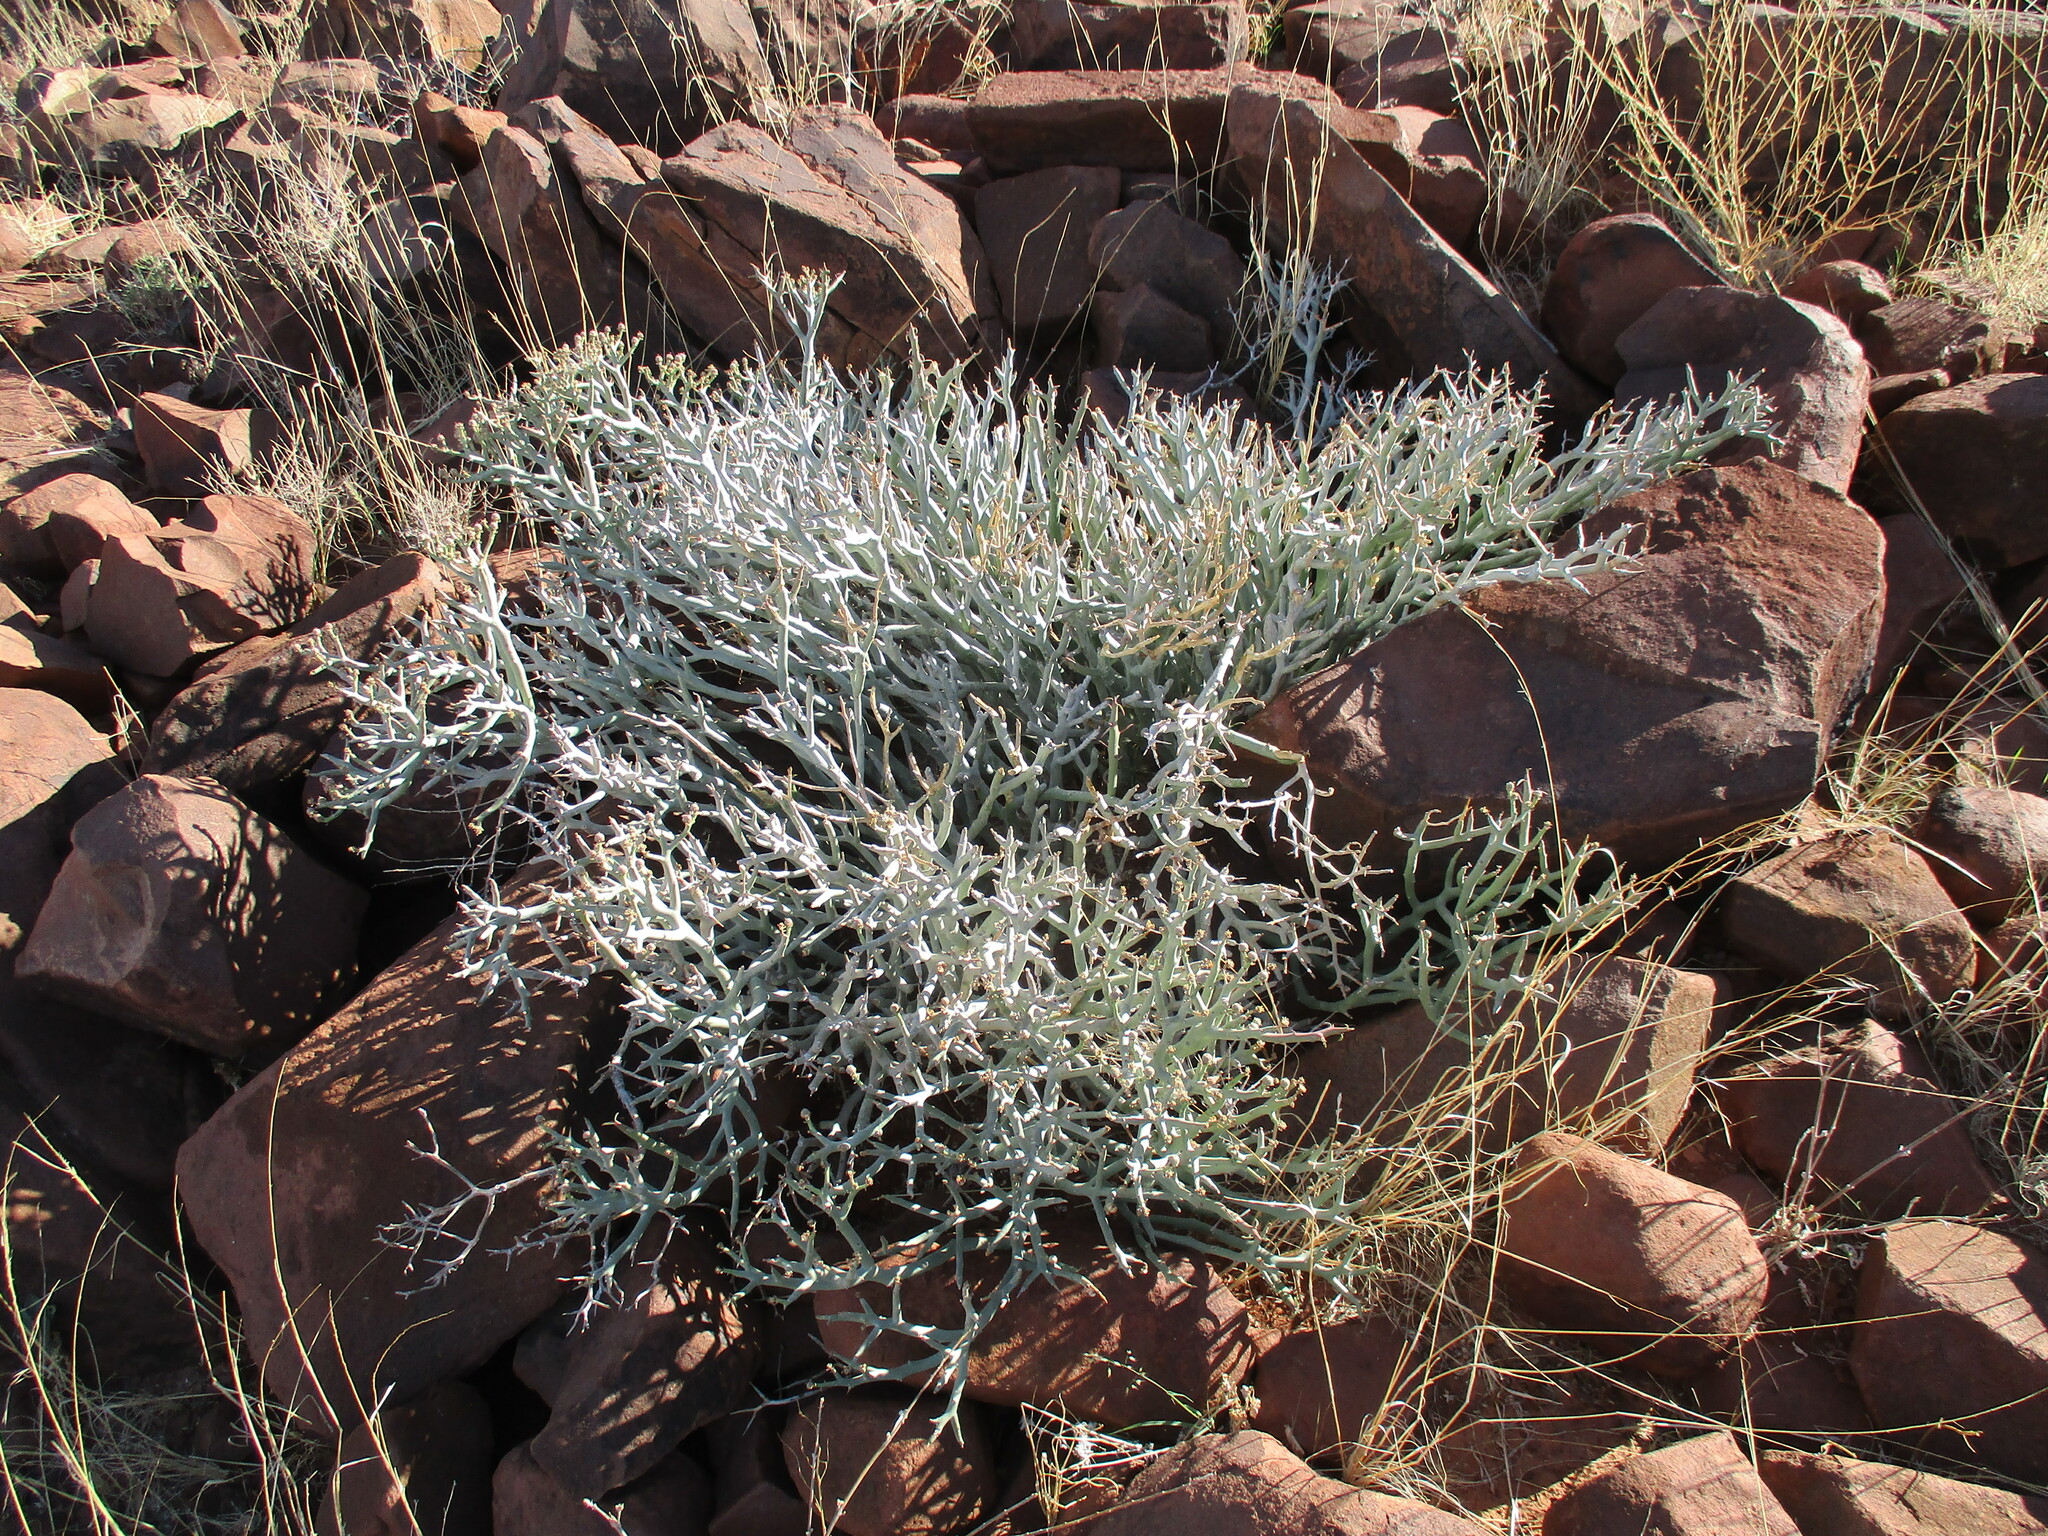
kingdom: Plantae
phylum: Tracheophyta
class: Magnoliopsida
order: Malpighiales
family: Euphorbiaceae
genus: Euphorbia
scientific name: Euphorbia lignosa
